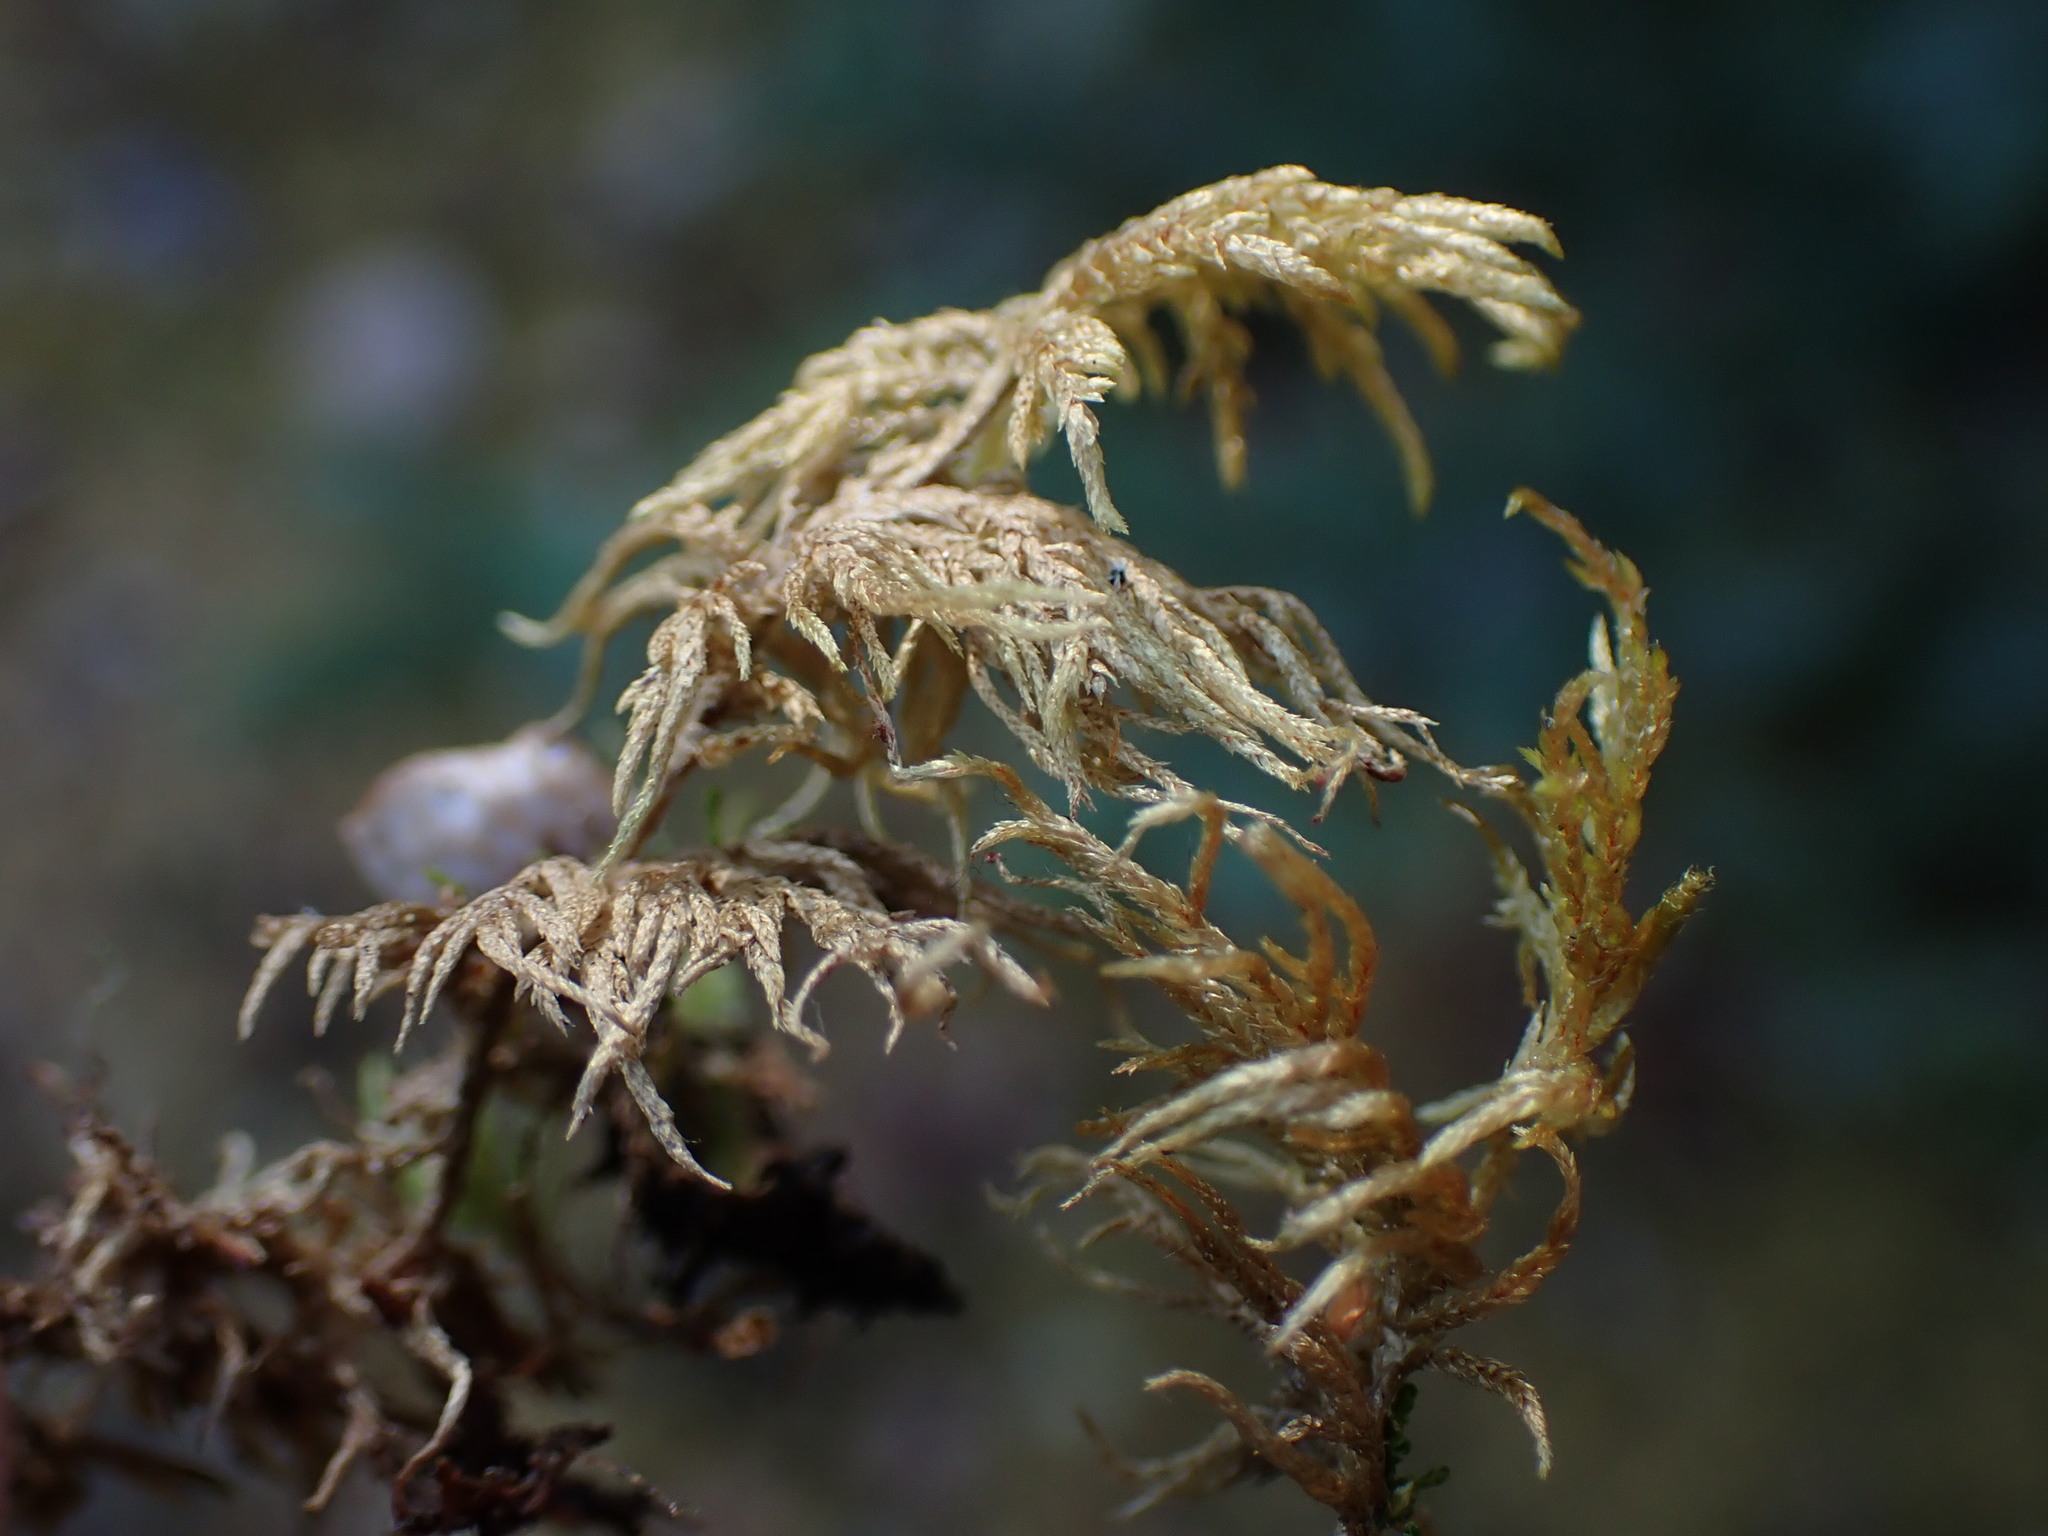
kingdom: Plantae
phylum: Bryophyta
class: Bryopsida
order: Hypnales
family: Hylocomiaceae
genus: Hylocomium
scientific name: Hylocomium splendens
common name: Stairstep moss
